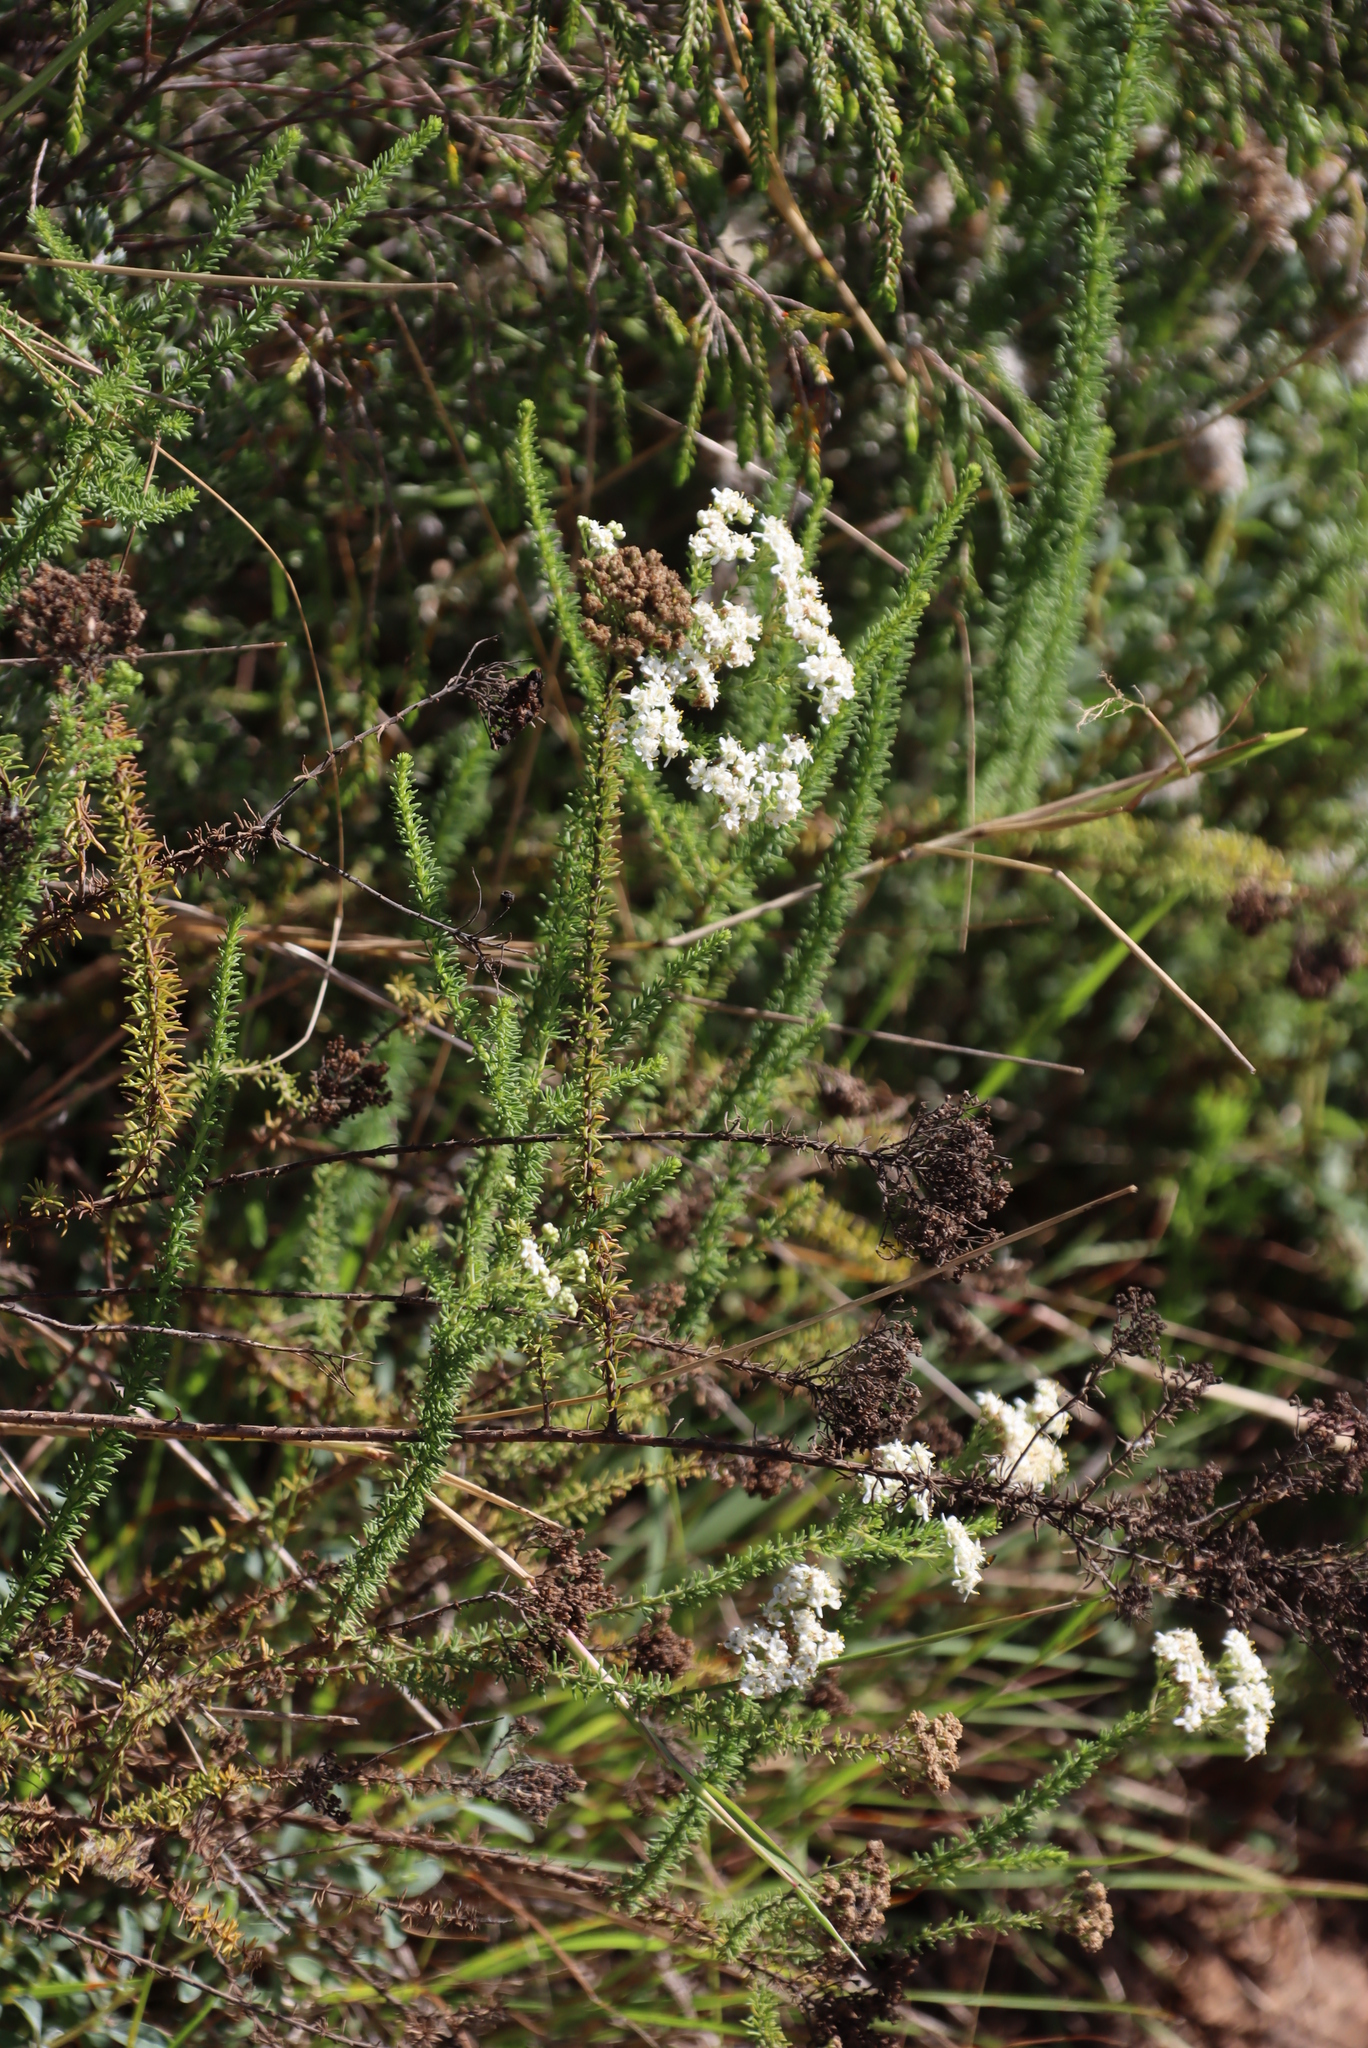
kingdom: Plantae
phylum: Tracheophyta
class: Magnoliopsida
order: Lamiales
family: Scrophulariaceae
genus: Selago
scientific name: Selago corymbosa
